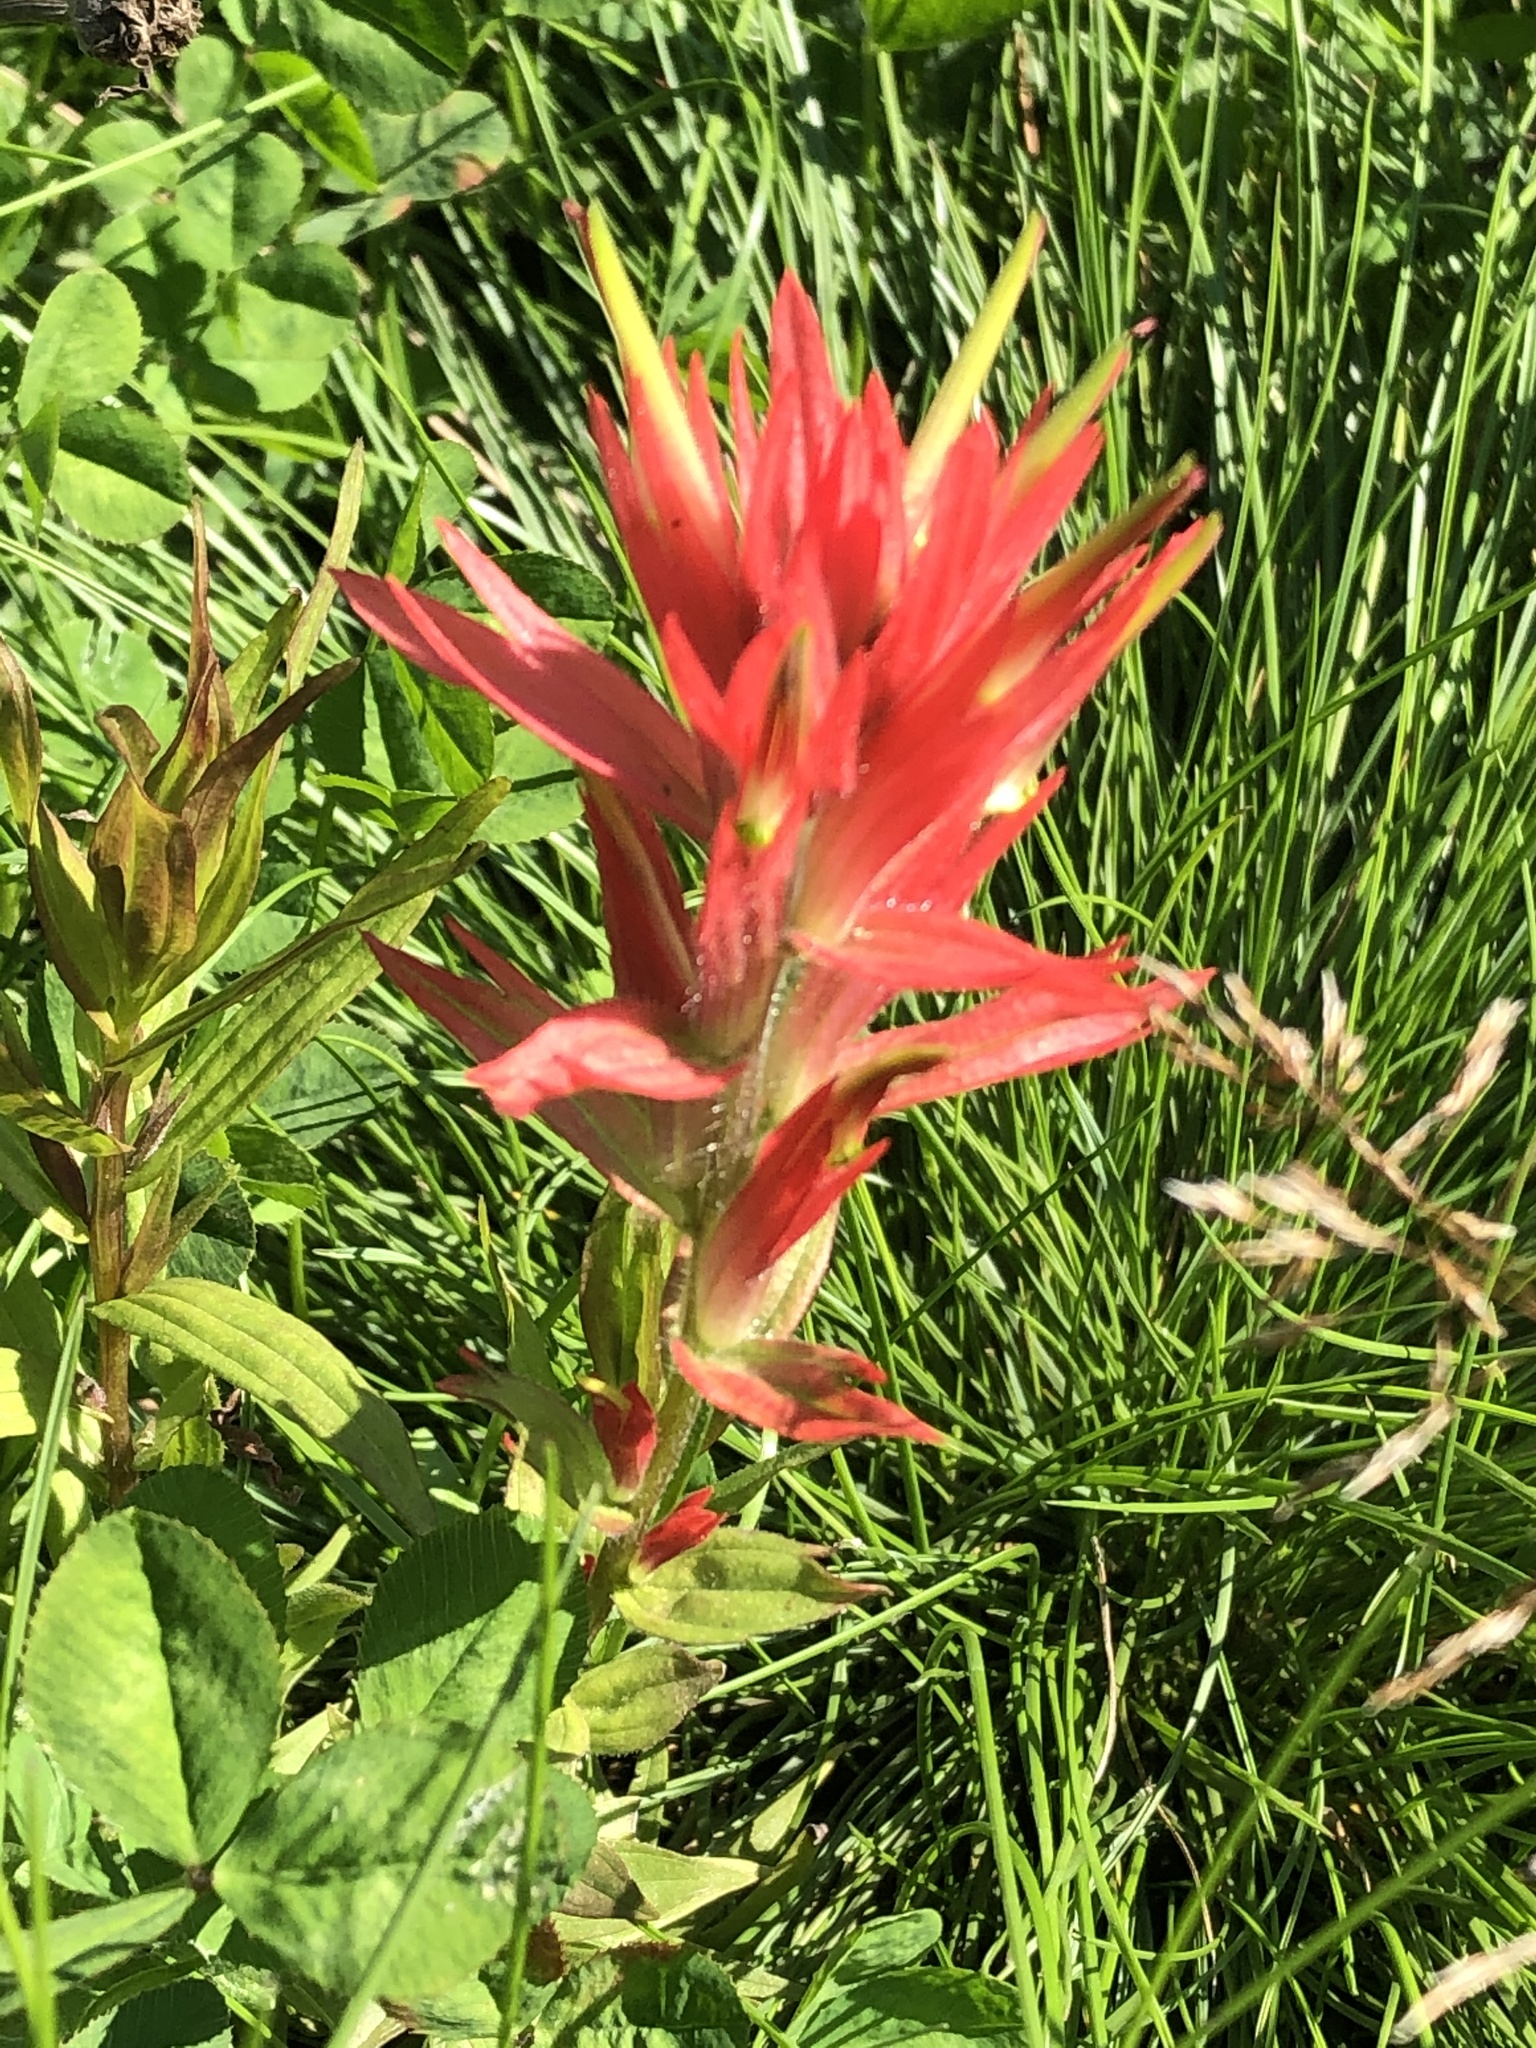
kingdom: Plantae
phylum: Tracheophyta
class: Magnoliopsida
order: Lamiales
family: Orobanchaceae
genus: Castilleja
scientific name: Castilleja miniata
